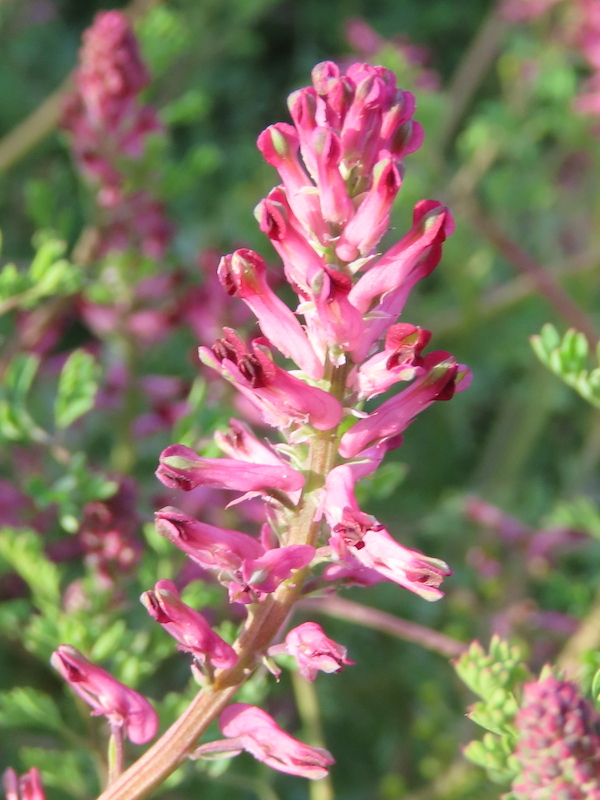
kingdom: Plantae
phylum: Tracheophyta
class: Magnoliopsida
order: Ranunculales
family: Papaveraceae
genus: Fumaria
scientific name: Fumaria officinalis
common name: Common fumitory
